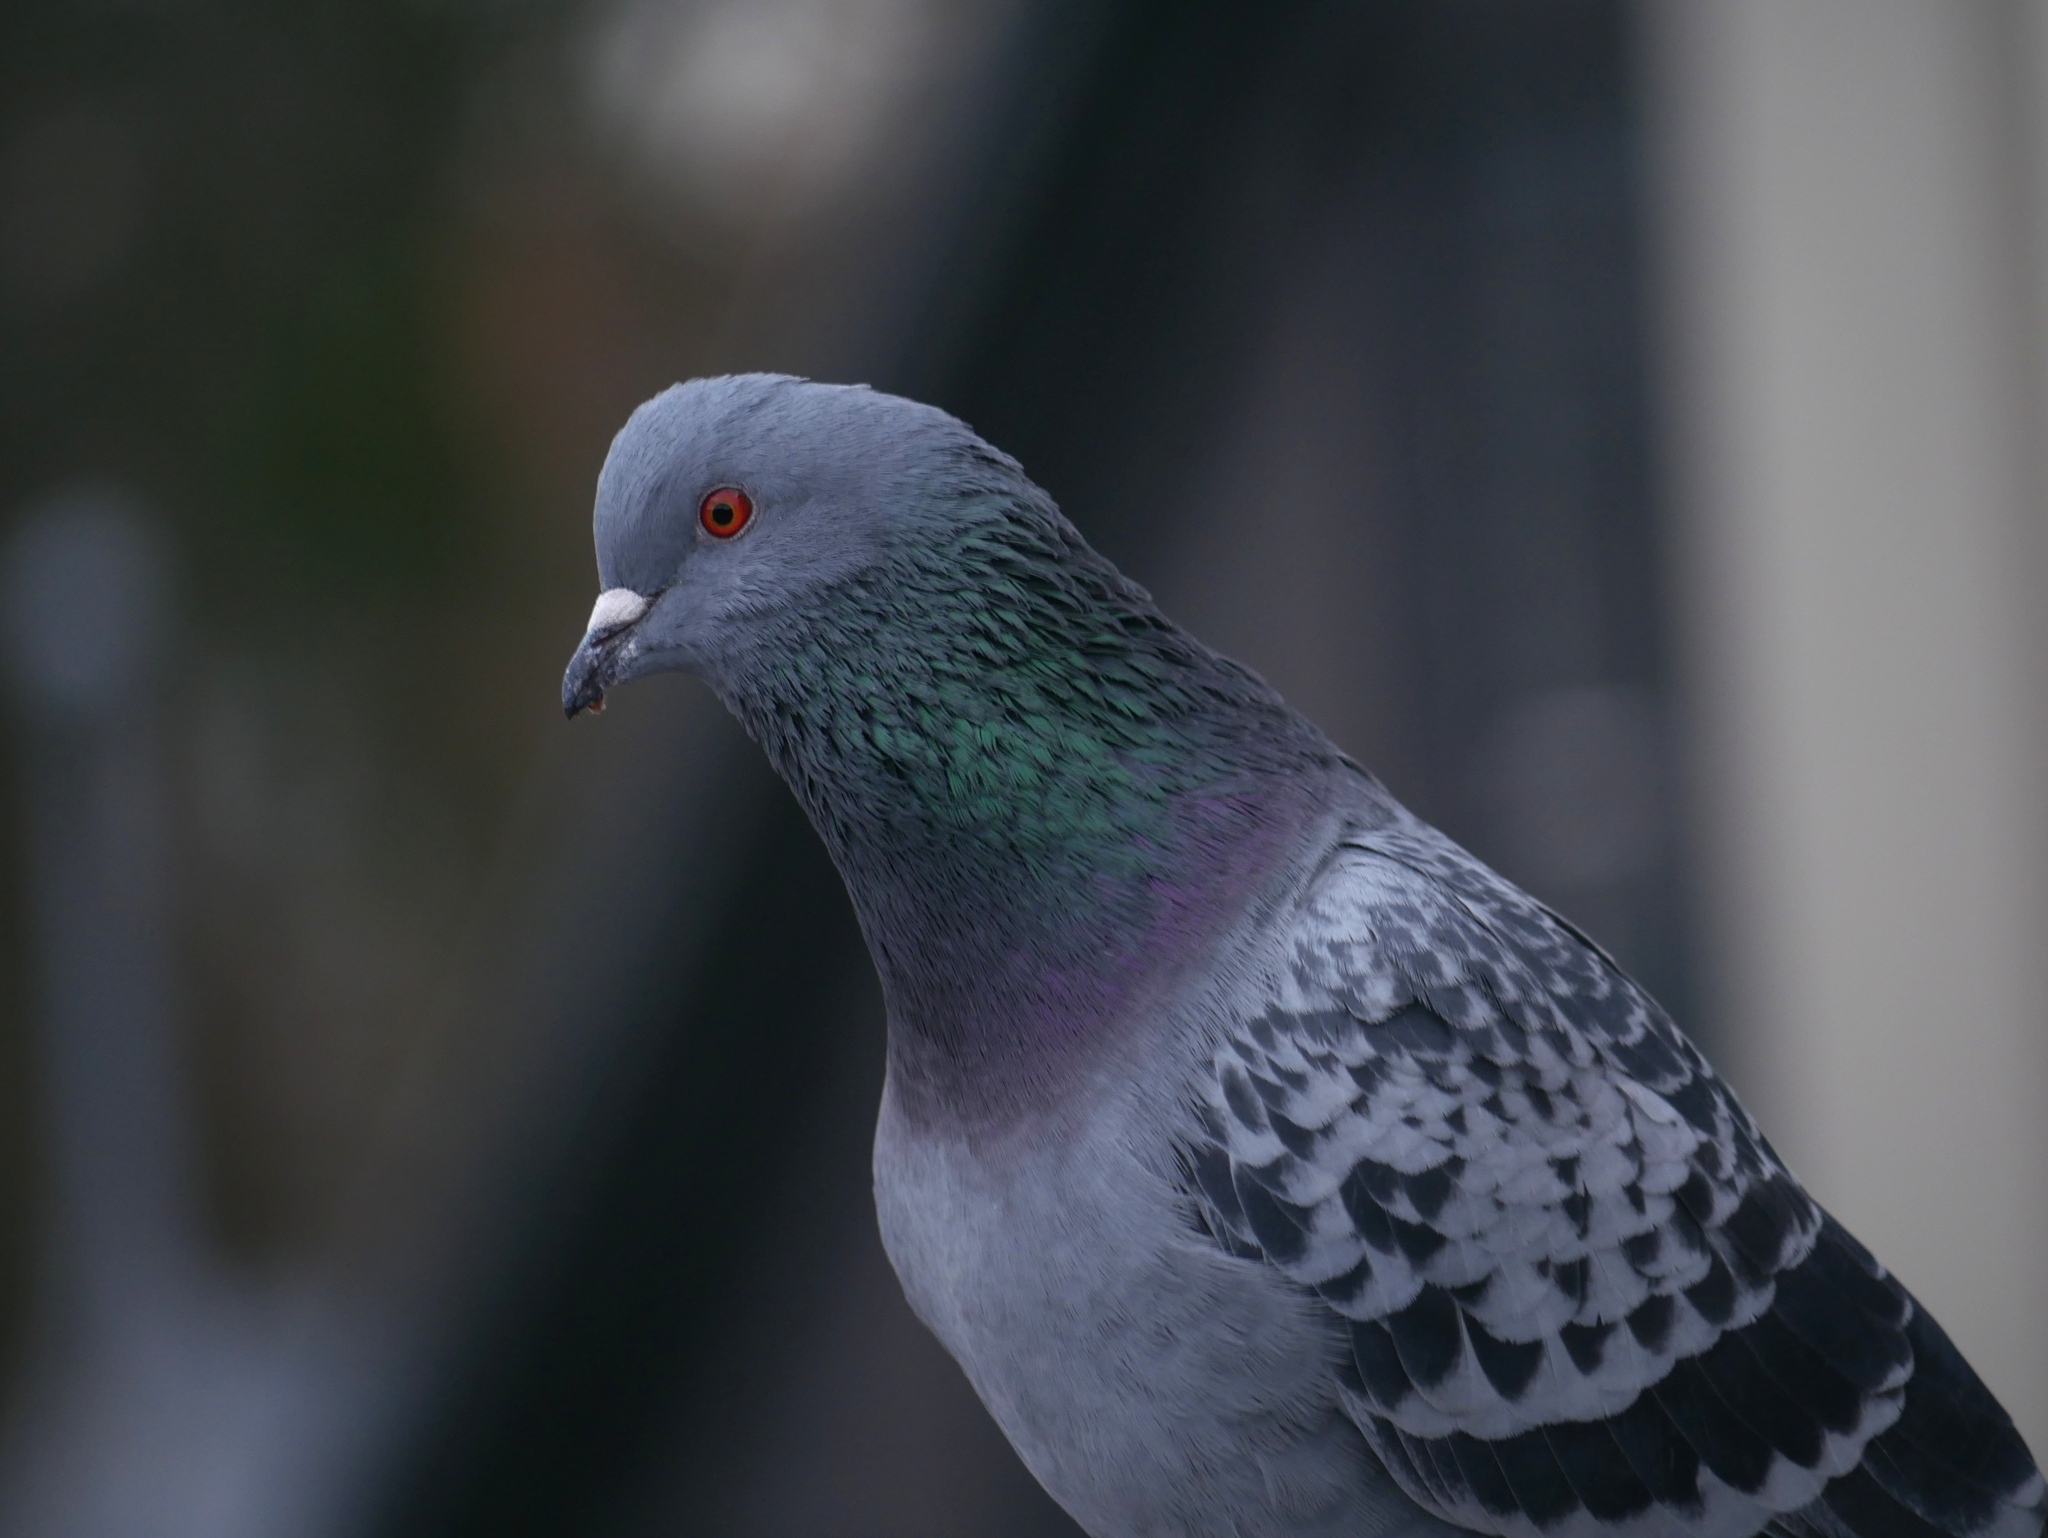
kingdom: Animalia
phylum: Chordata
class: Aves
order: Columbiformes
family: Columbidae
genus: Columba
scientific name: Columba livia
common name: Rock pigeon
